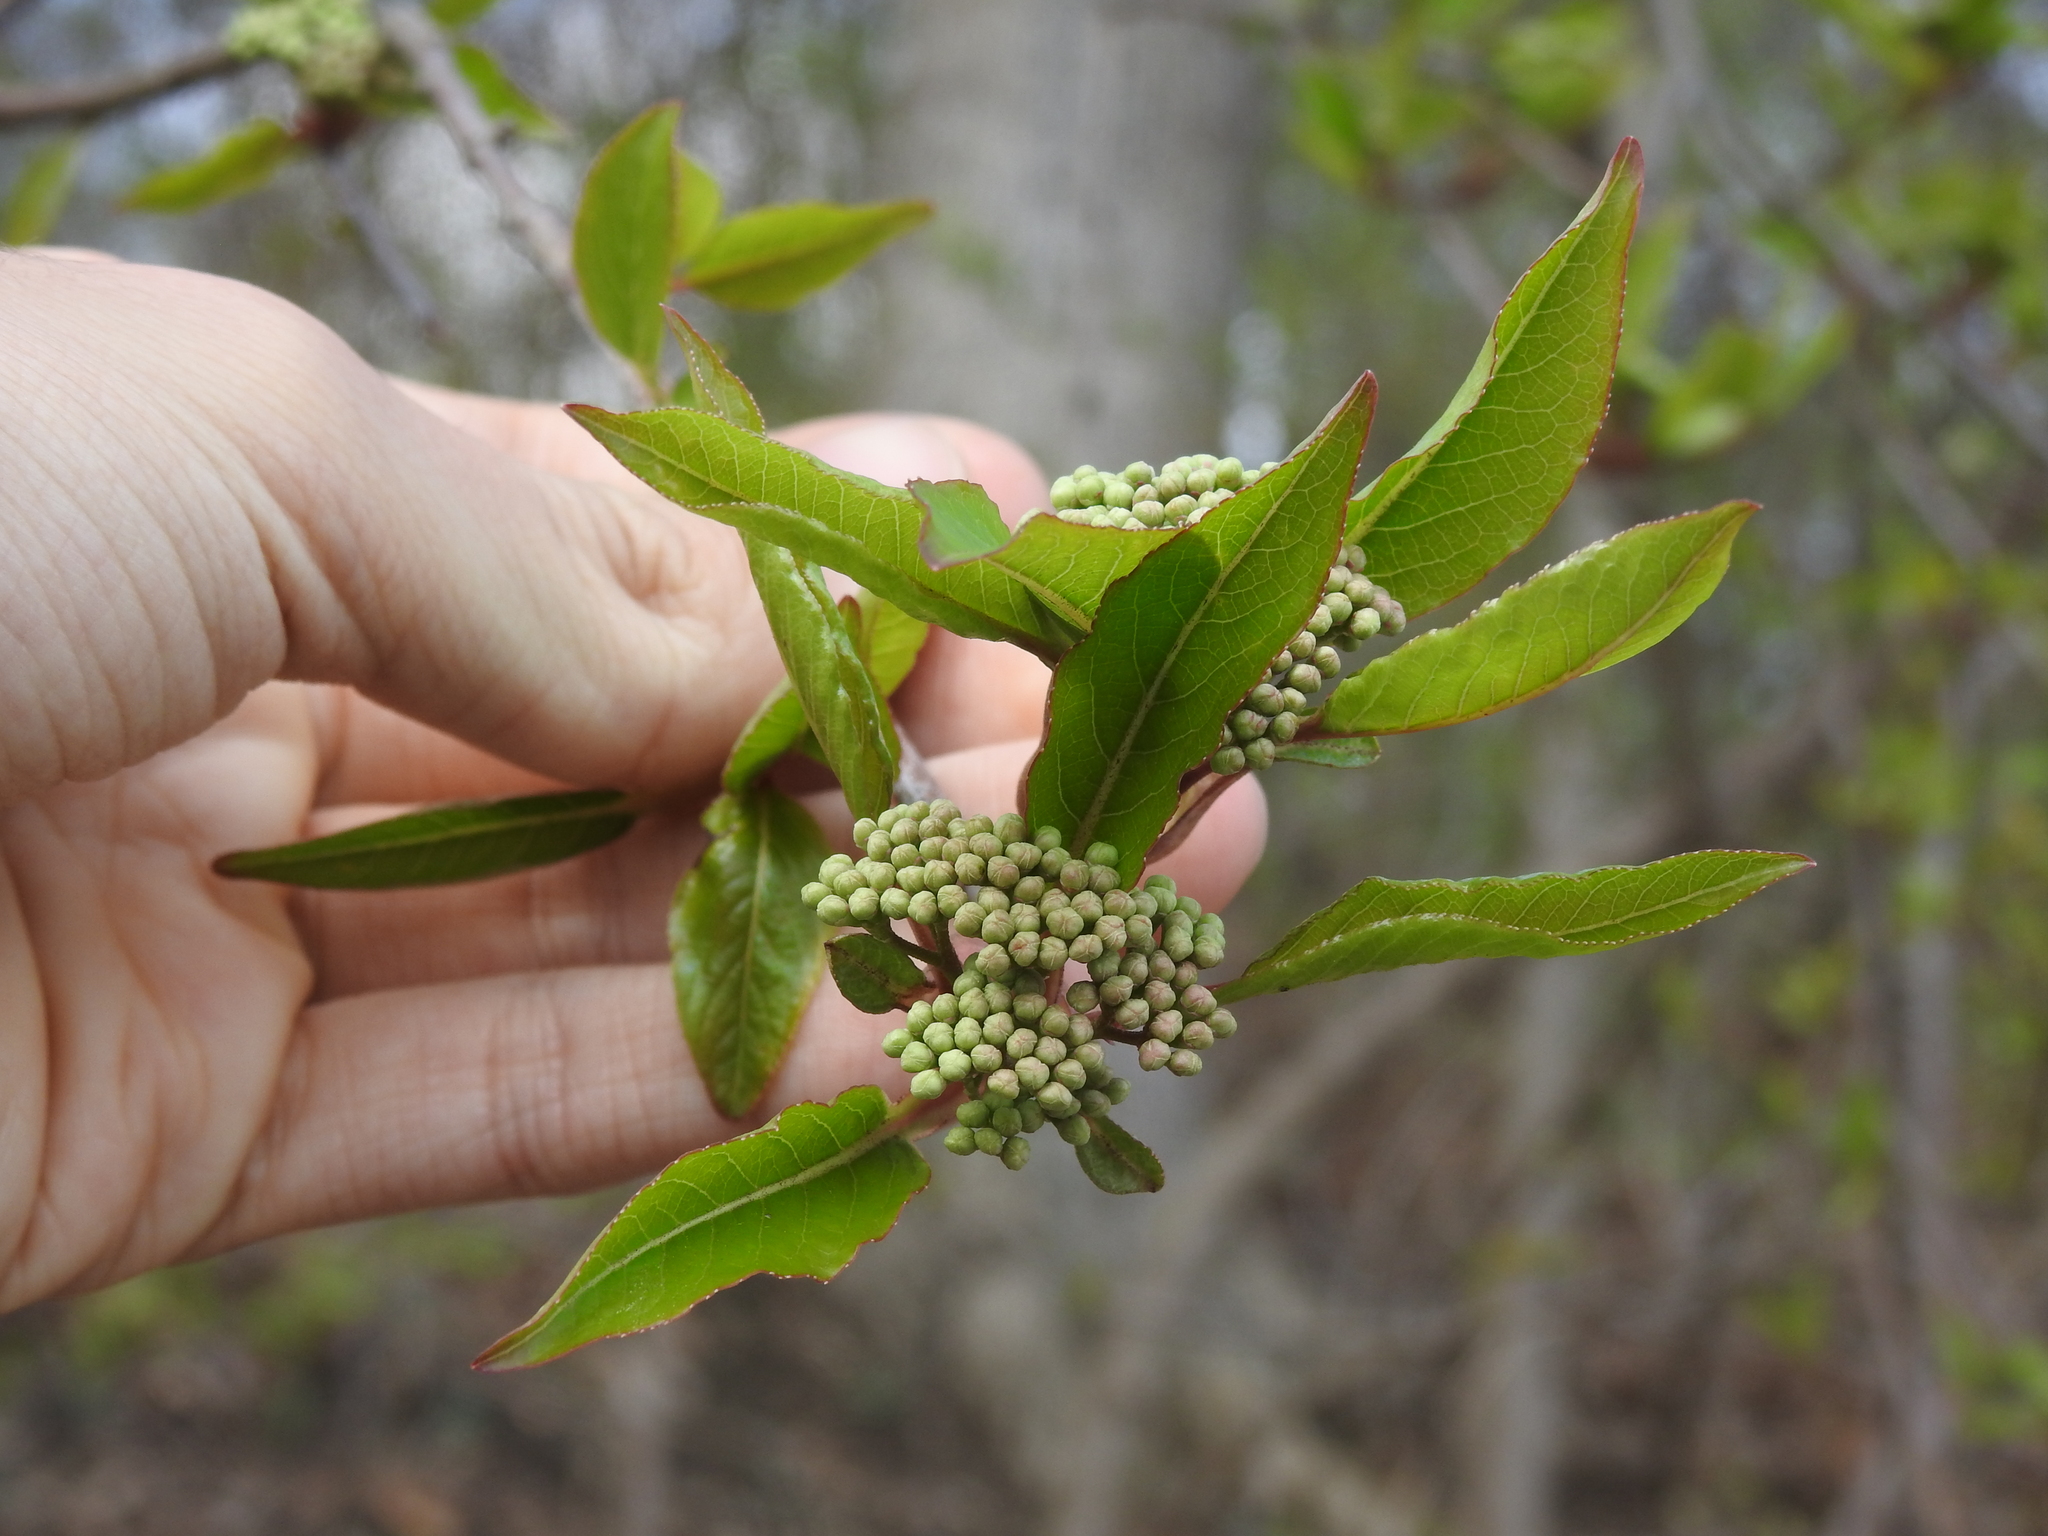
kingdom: Plantae
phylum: Tracheophyta
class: Magnoliopsida
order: Dipsacales
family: Viburnaceae
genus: Viburnum
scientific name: Viburnum prunifolium
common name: Black haw
